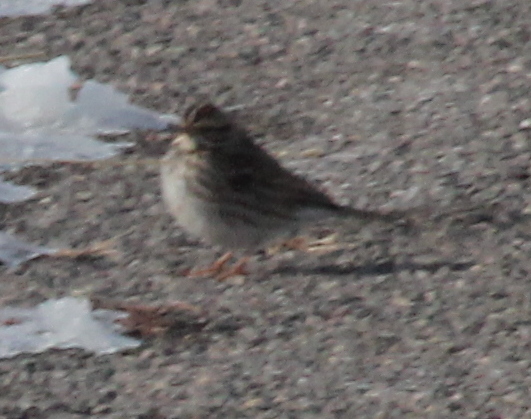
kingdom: Animalia
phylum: Chordata
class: Aves
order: Passeriformes
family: Passerellidae
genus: Passerculus
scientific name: Passerculus sandwichensis
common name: Savannah sparrow
